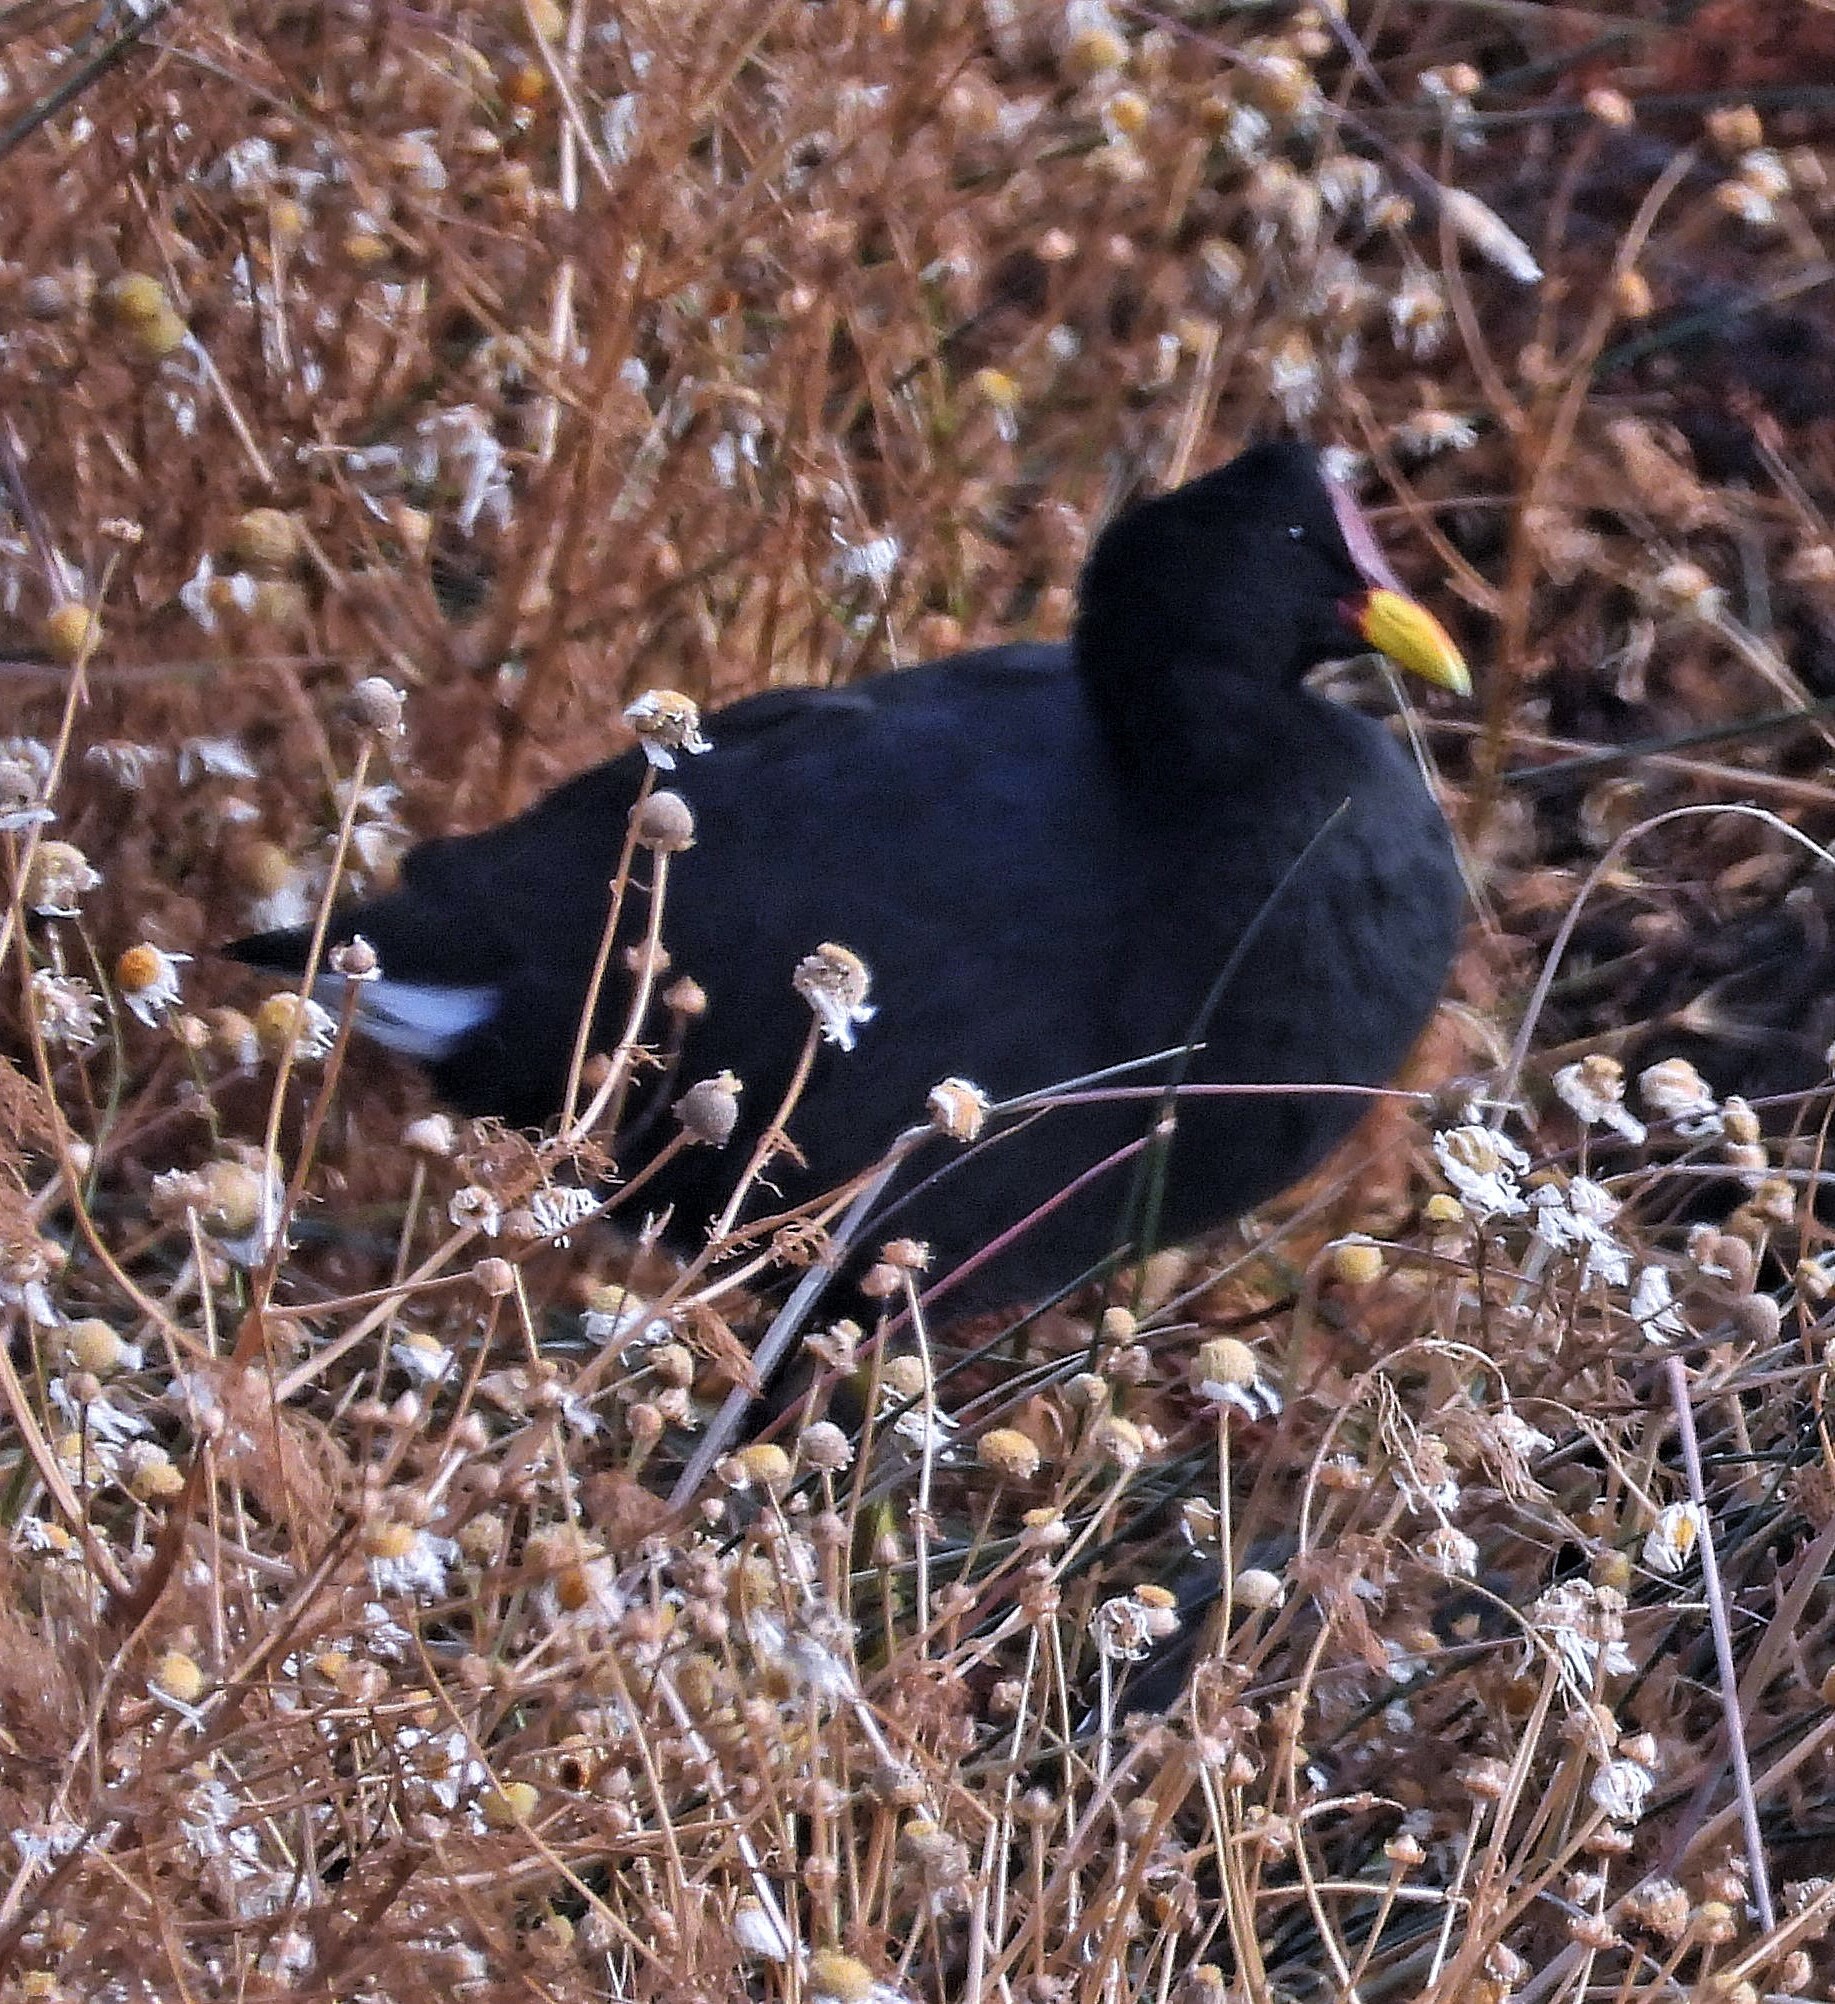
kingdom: Animalia
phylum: Chordata
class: Aves
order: Gruiformes
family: Rallidae
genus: Fulica
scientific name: Fulica rufifrons
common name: Red-fronted coot
